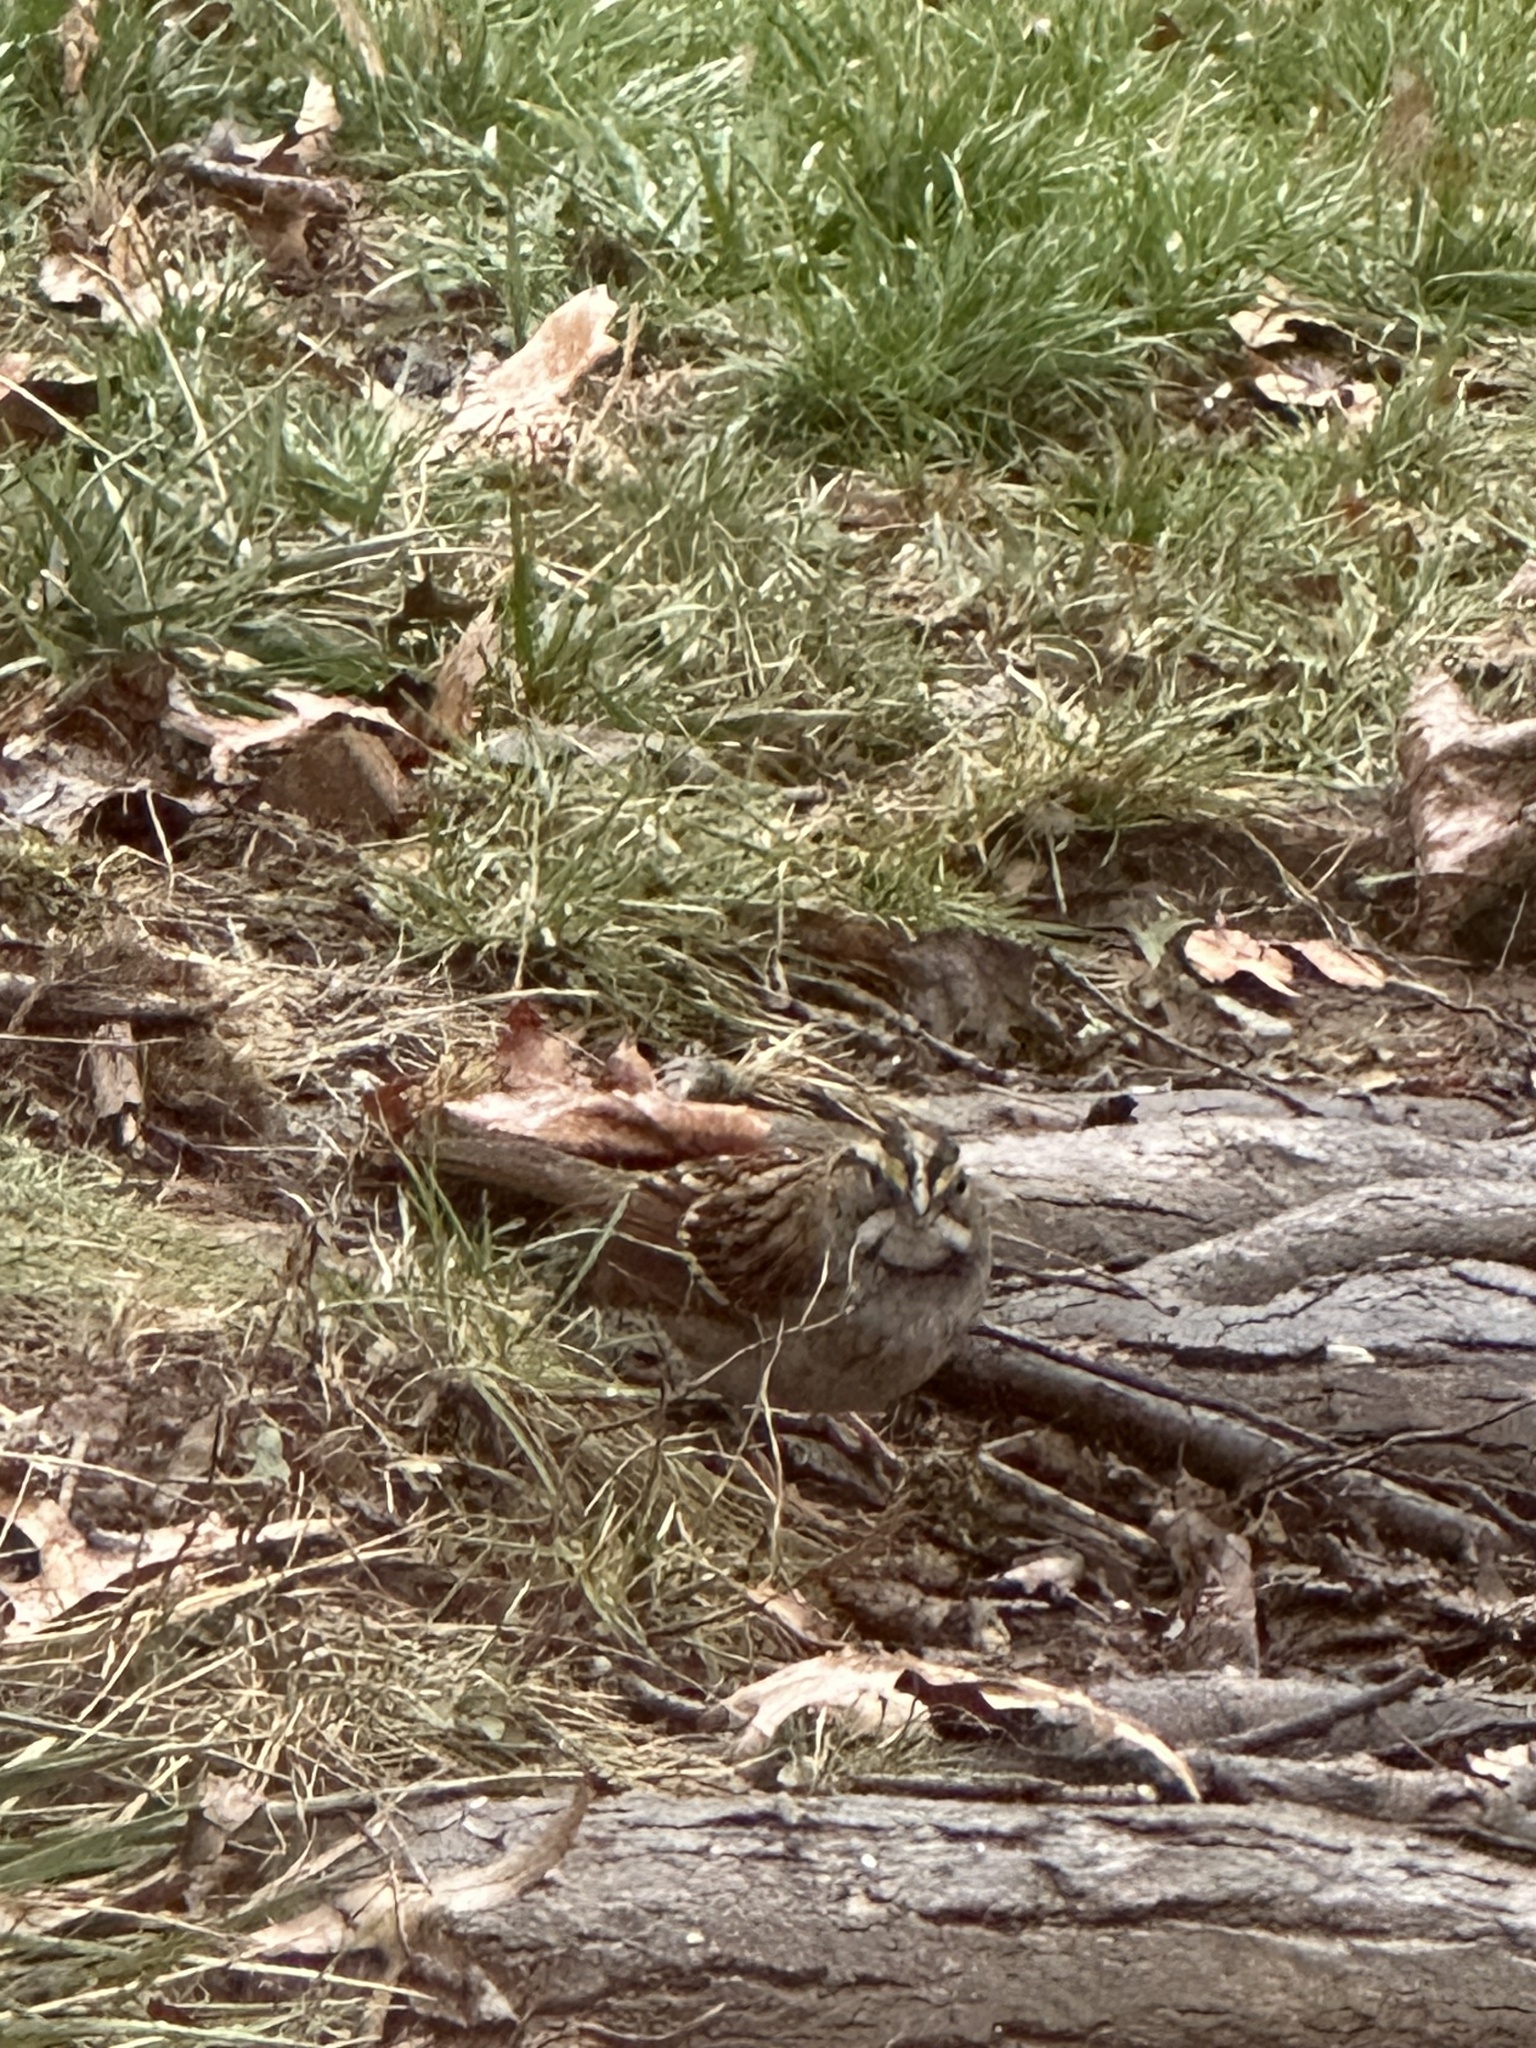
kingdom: Animalia
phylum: Chordata
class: Aves
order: Passeriformes
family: Passerellidae
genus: Zonotrichia
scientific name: Zonotrichia albicollis
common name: White-throated sparrow
